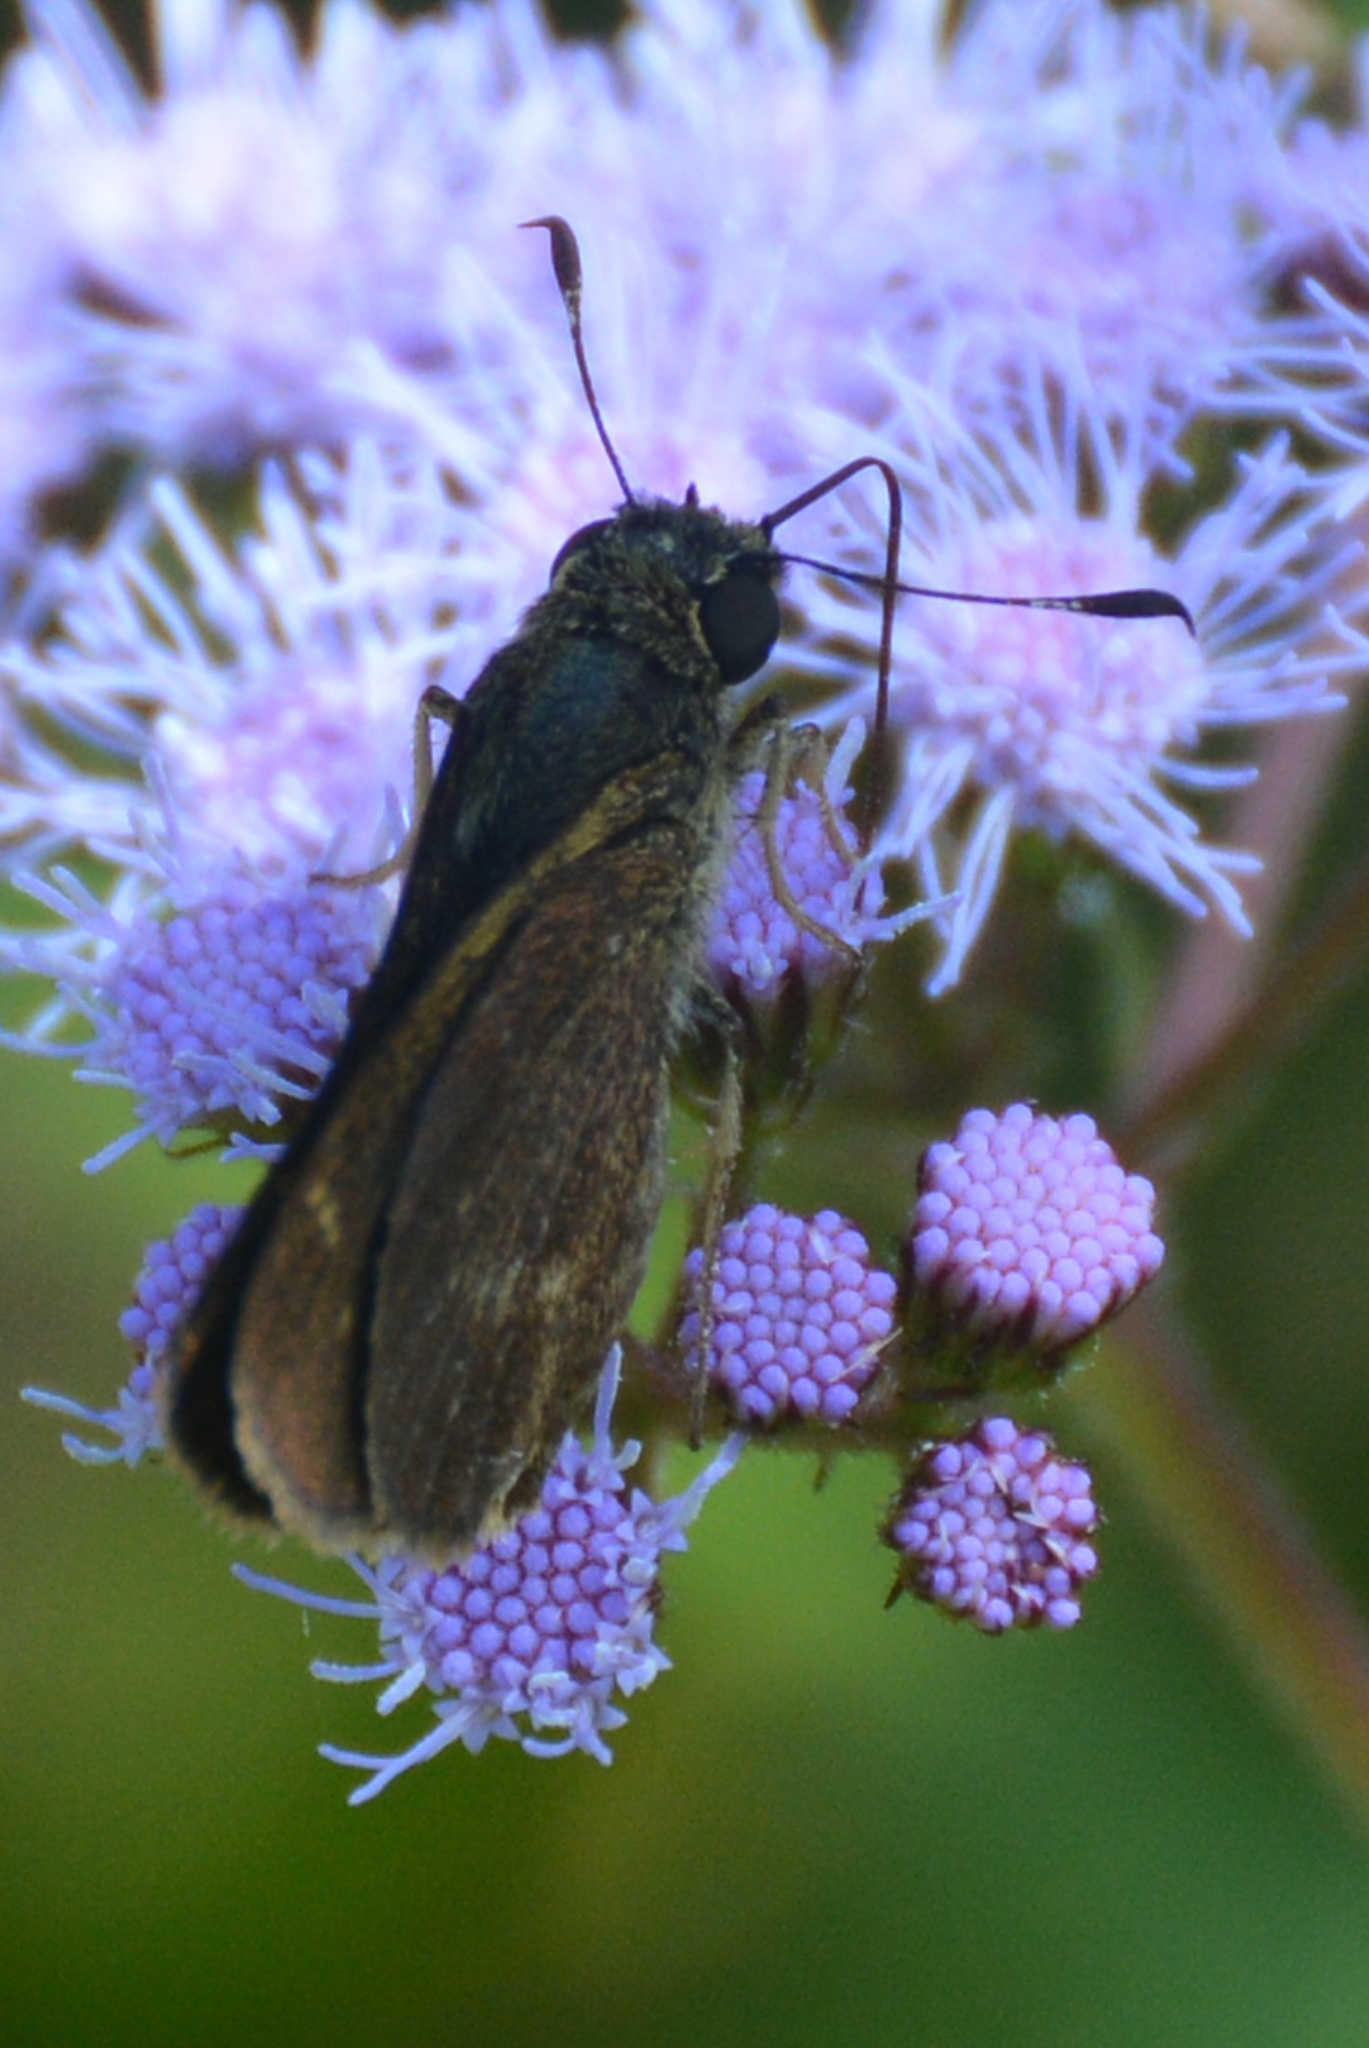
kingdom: Animalia
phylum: Arthropoda
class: Insecta
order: Lepidoptera
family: Hesperiidae
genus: Vernia
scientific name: Vernia verna
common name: Little glassywing
